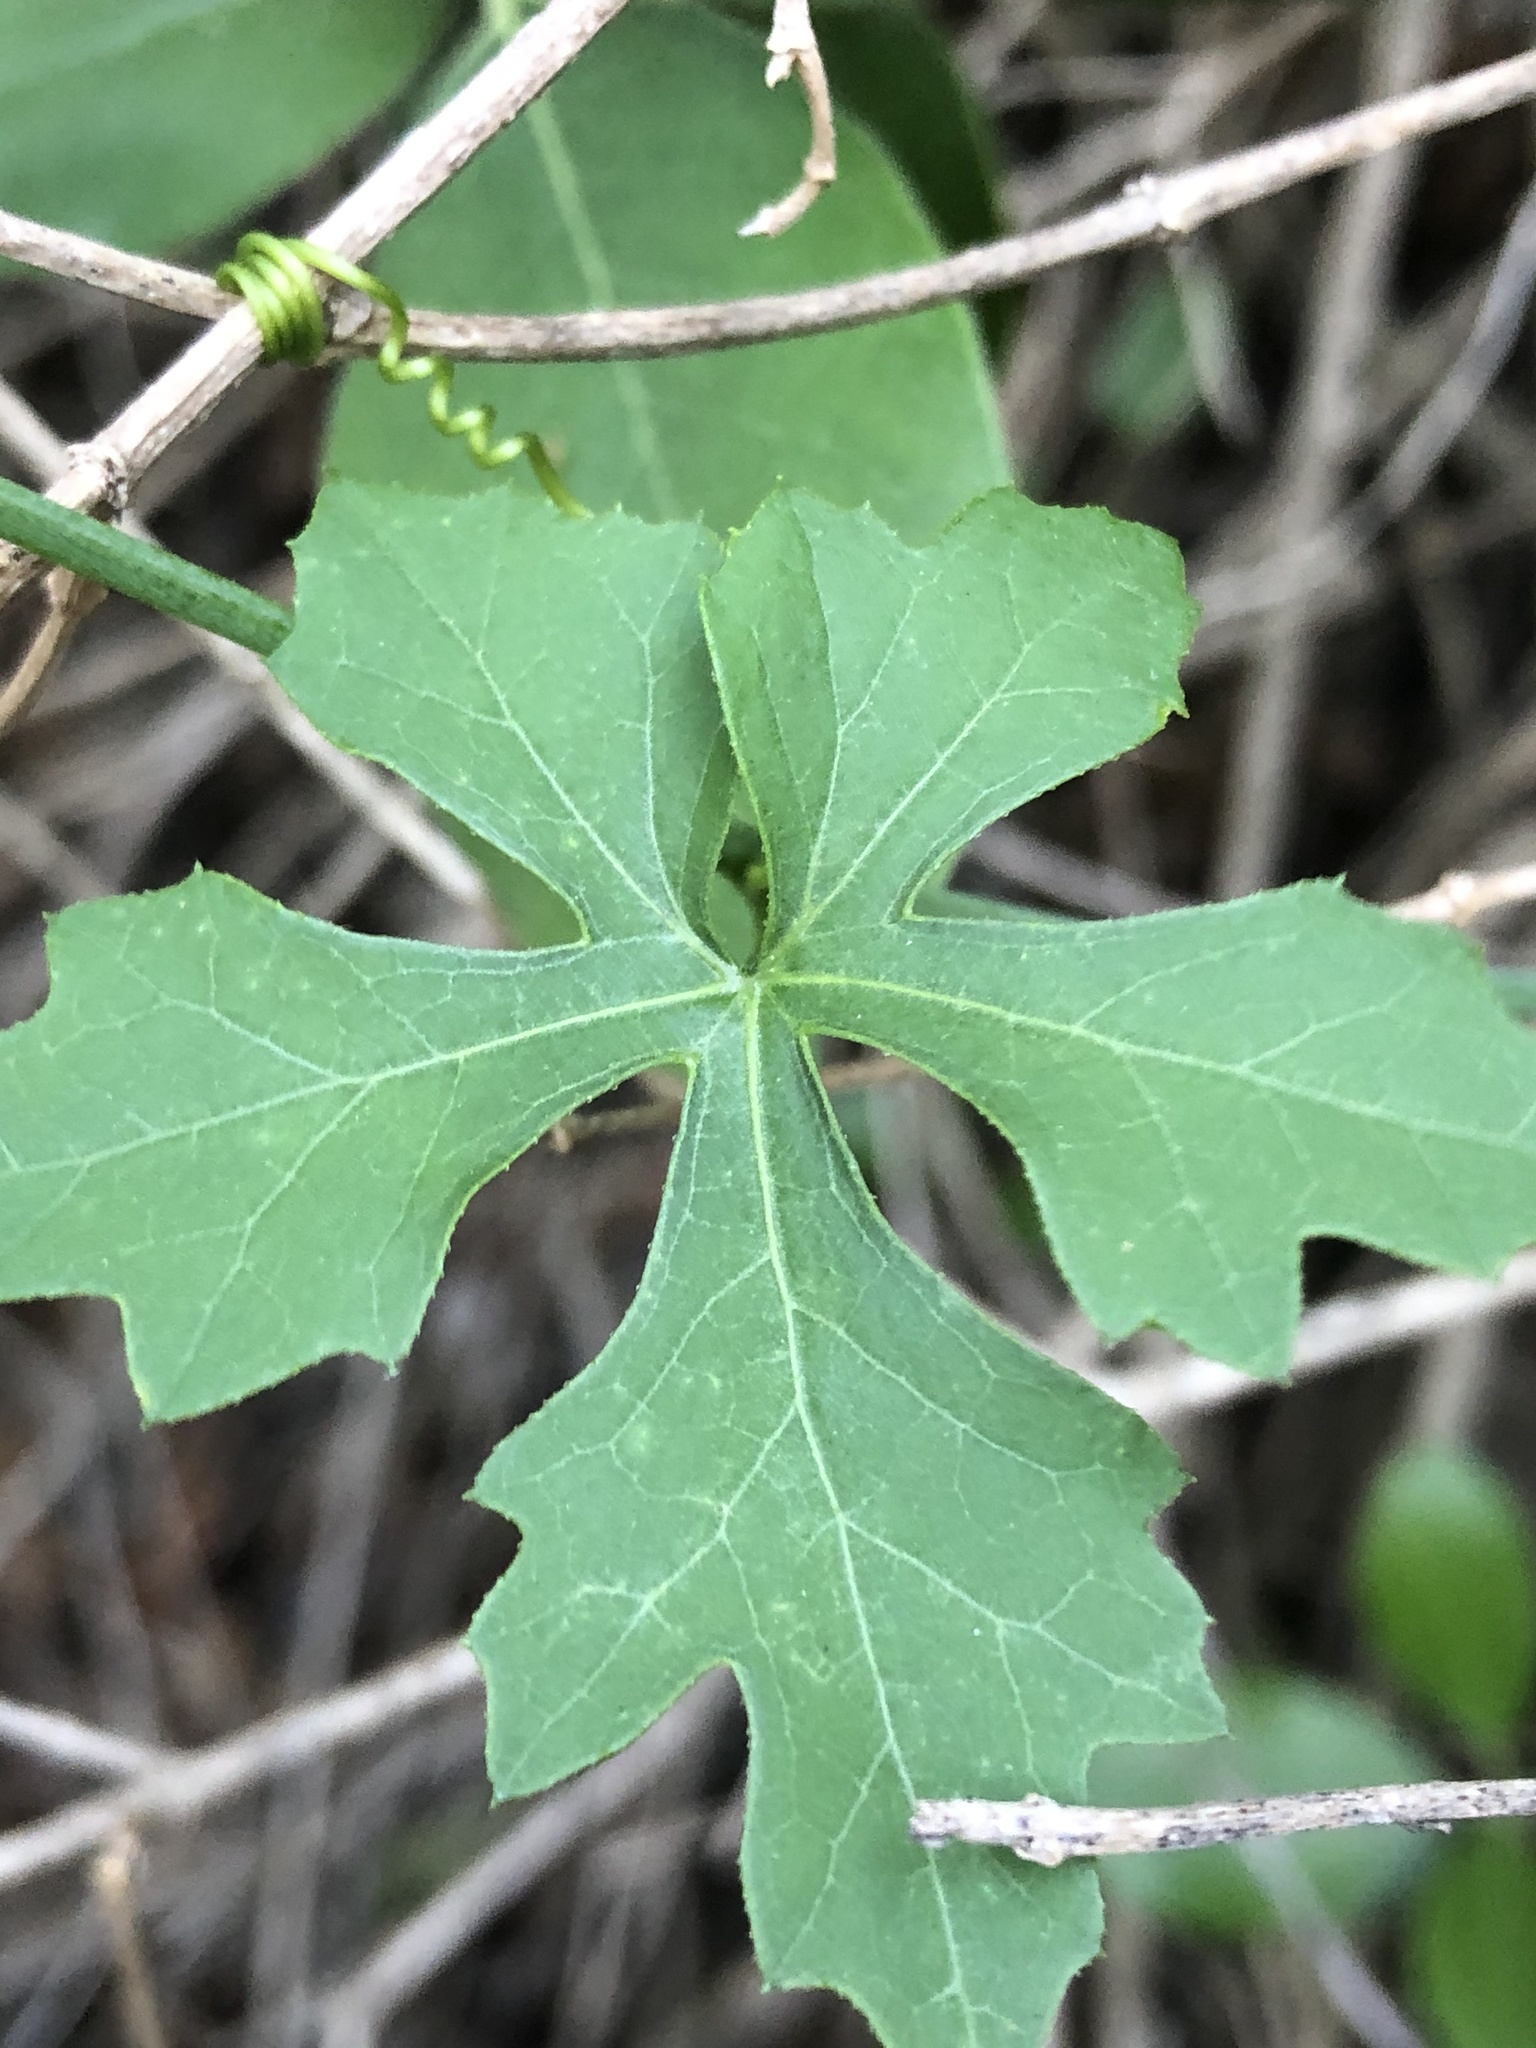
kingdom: Plantae
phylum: Tracheophyta
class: Magnoliopsida
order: Cucurbitales
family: Cucurbitaceae
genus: Ibervillea
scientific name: Ibervillea lindheimeri
